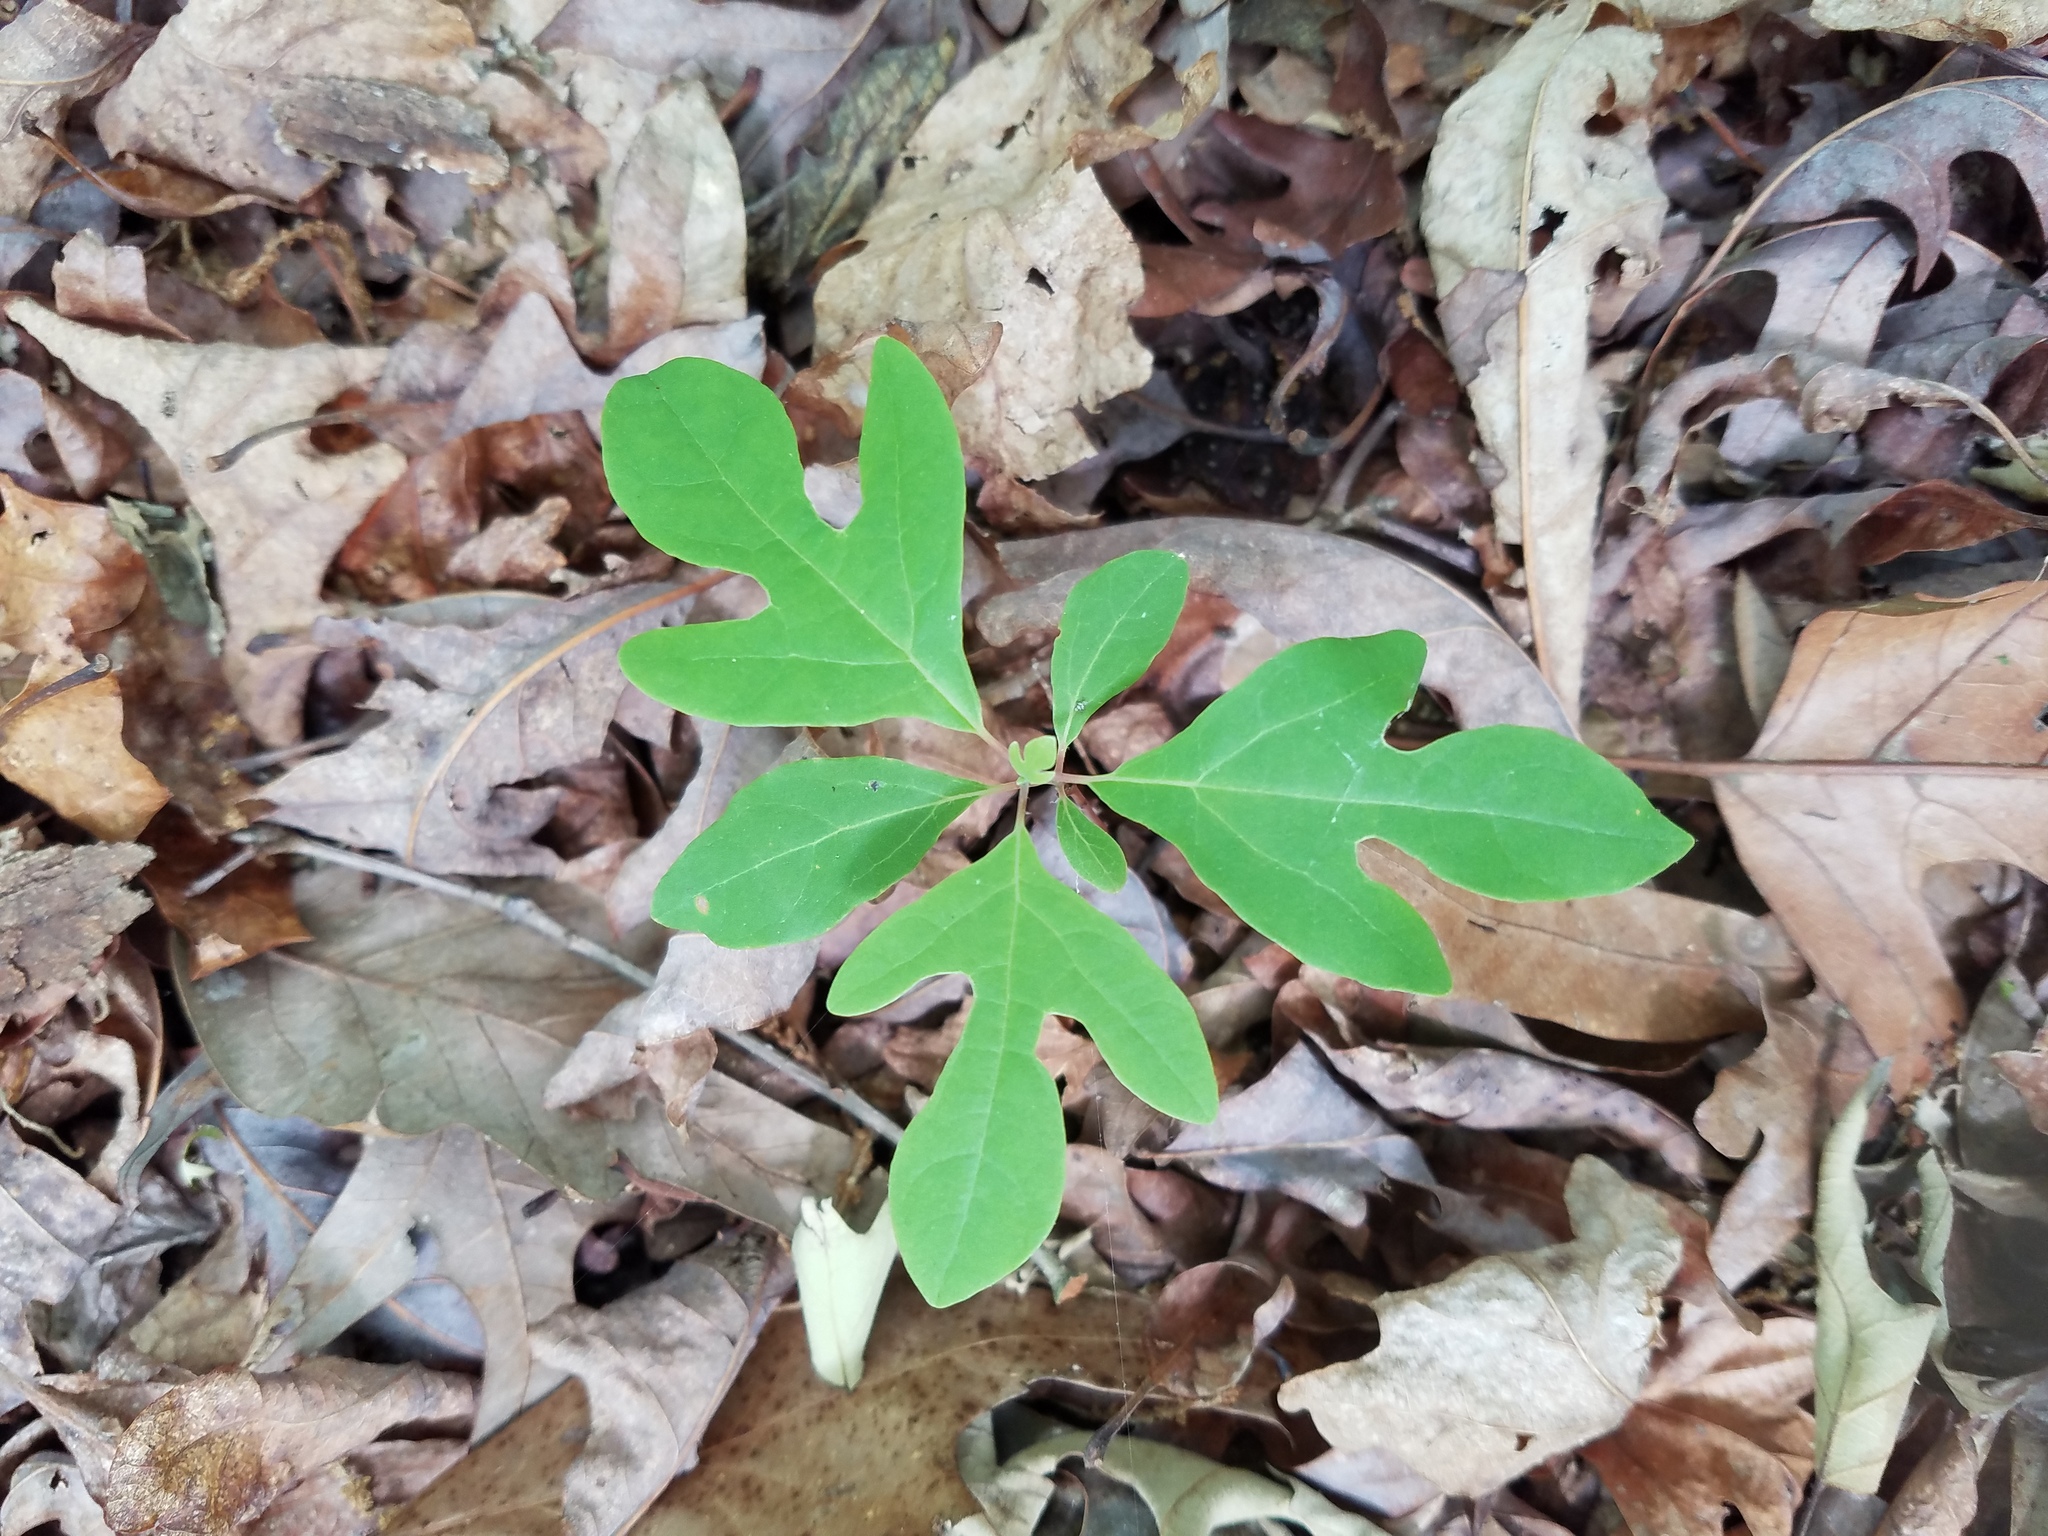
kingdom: Plantae
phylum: Tracheophyta
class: Magnoliopsida
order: Laurales
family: Lauraceae
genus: Sassafras
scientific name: Sassafras albidum
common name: Sassafras
